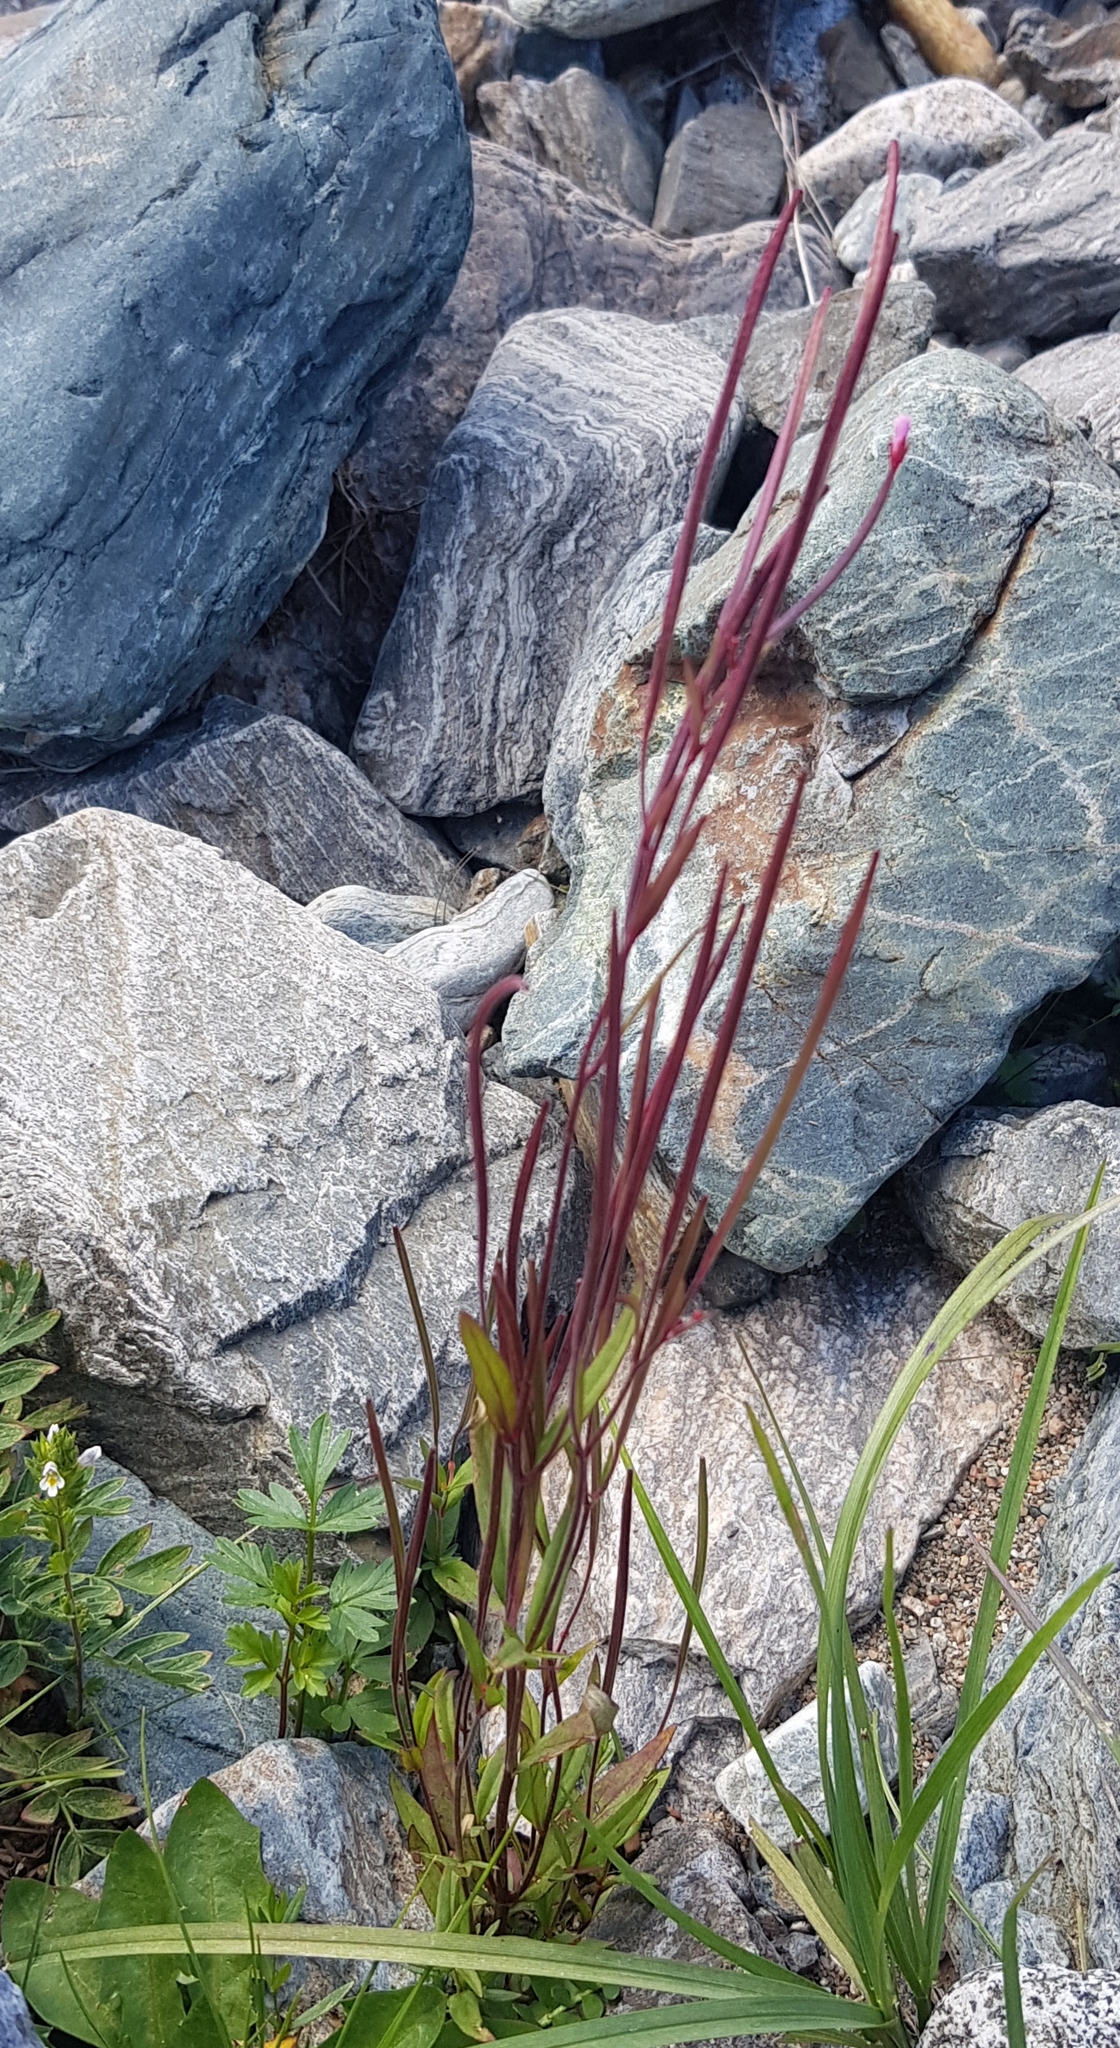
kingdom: Plantae
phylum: Tracheophyta
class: Magnoliopsida
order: Myrtales
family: Onagraceae
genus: Epilobium
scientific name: Epilobium palustre
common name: Marsh willowherb
